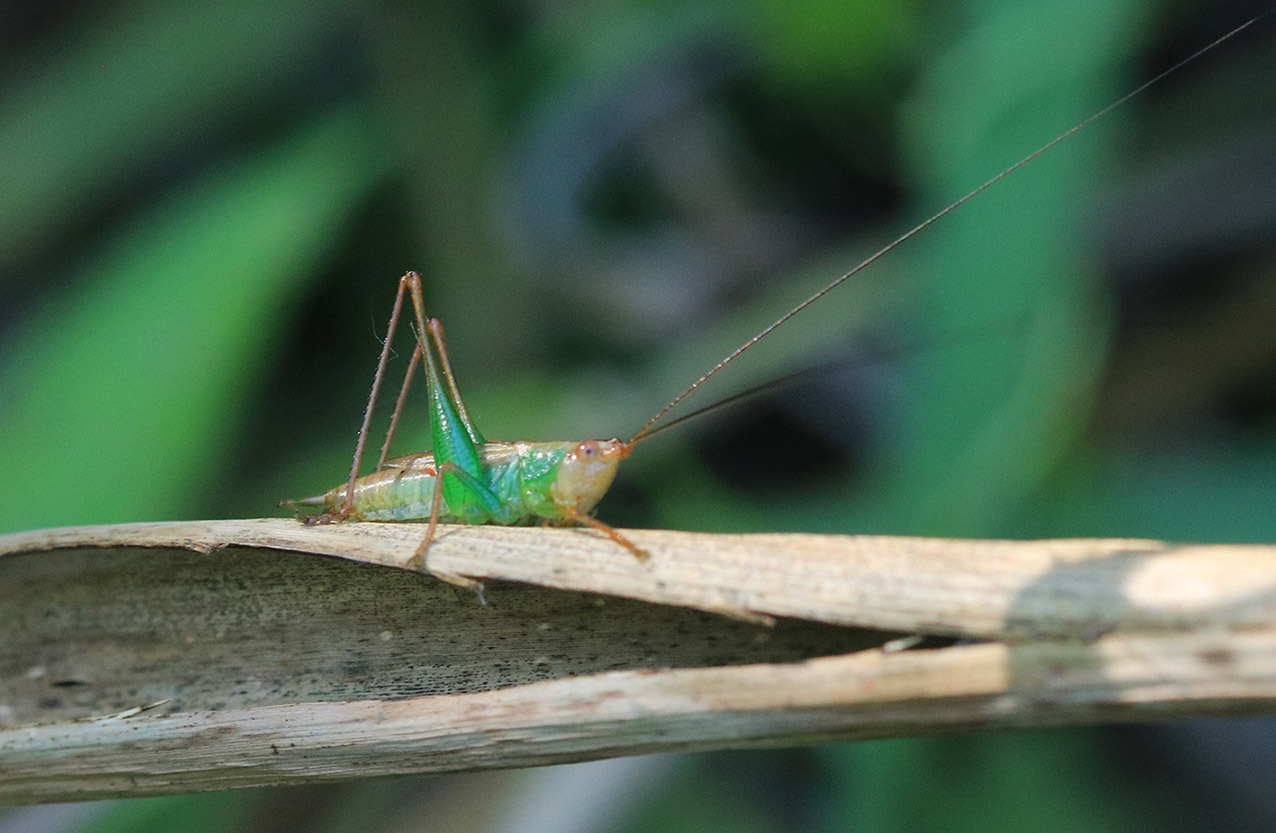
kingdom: Animalia
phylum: Arthropoda
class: Insecta
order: Orthoptera
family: Tettigoniidae
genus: Conocephalus
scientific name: Conocephalus cinnamonifrons
